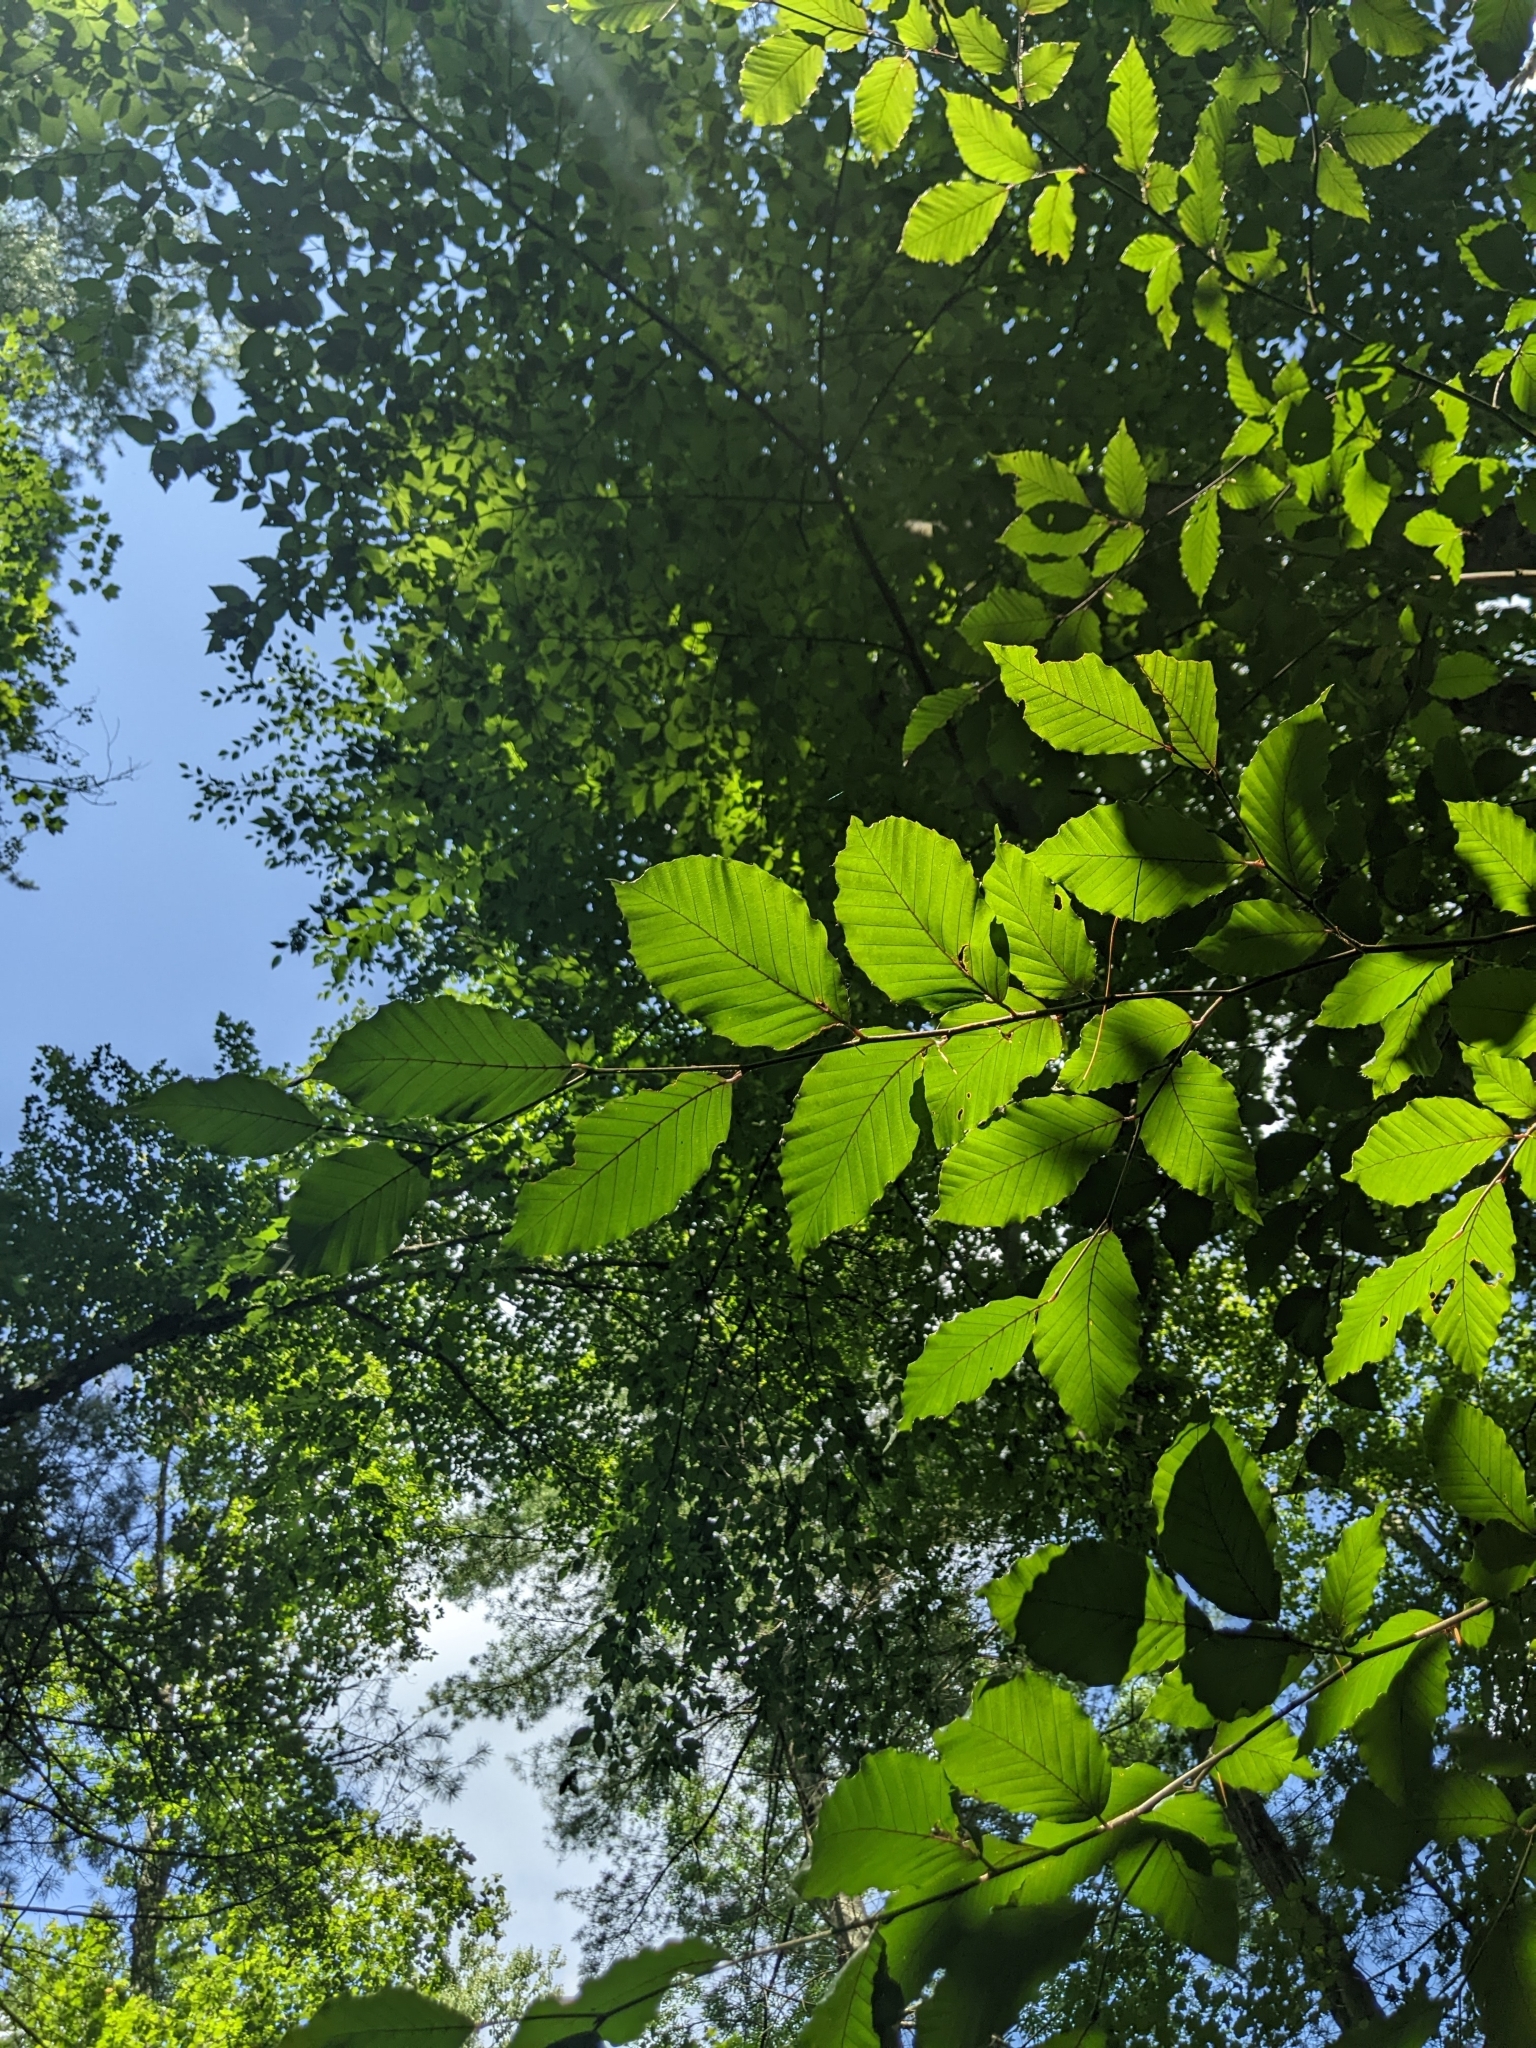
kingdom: Plantae
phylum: Tracheophyta
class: Magnoliopsida
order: Fagales
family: Fagaceae
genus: Fagus
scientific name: Fagus grandifolia
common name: American beech
